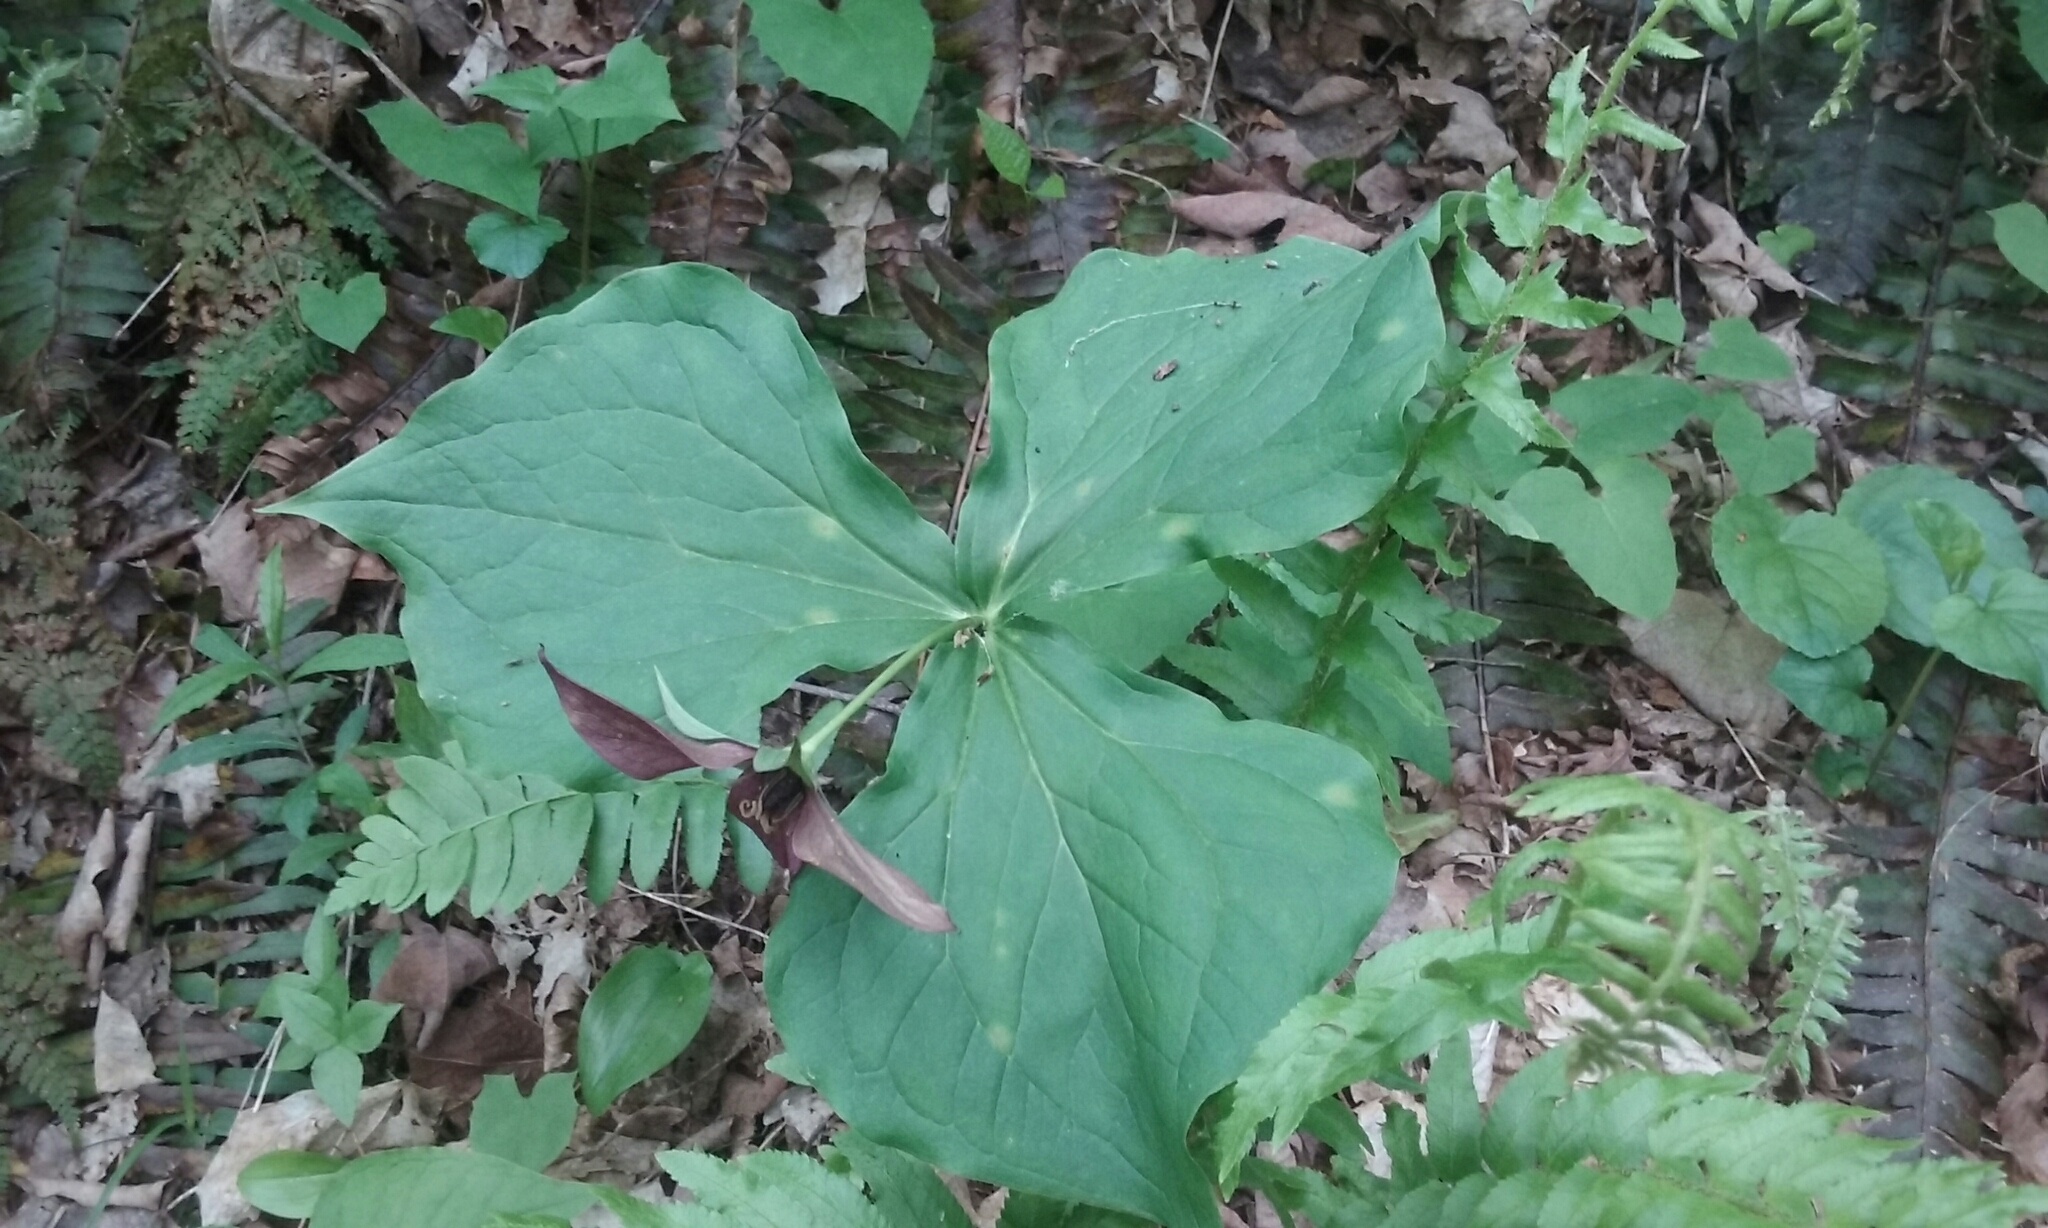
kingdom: Plantae
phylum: Tracheophyta
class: Liliopsida
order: Liliales
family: Melanthiaceae
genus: Trillium
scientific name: Trillium erectum
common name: Purple trillium
